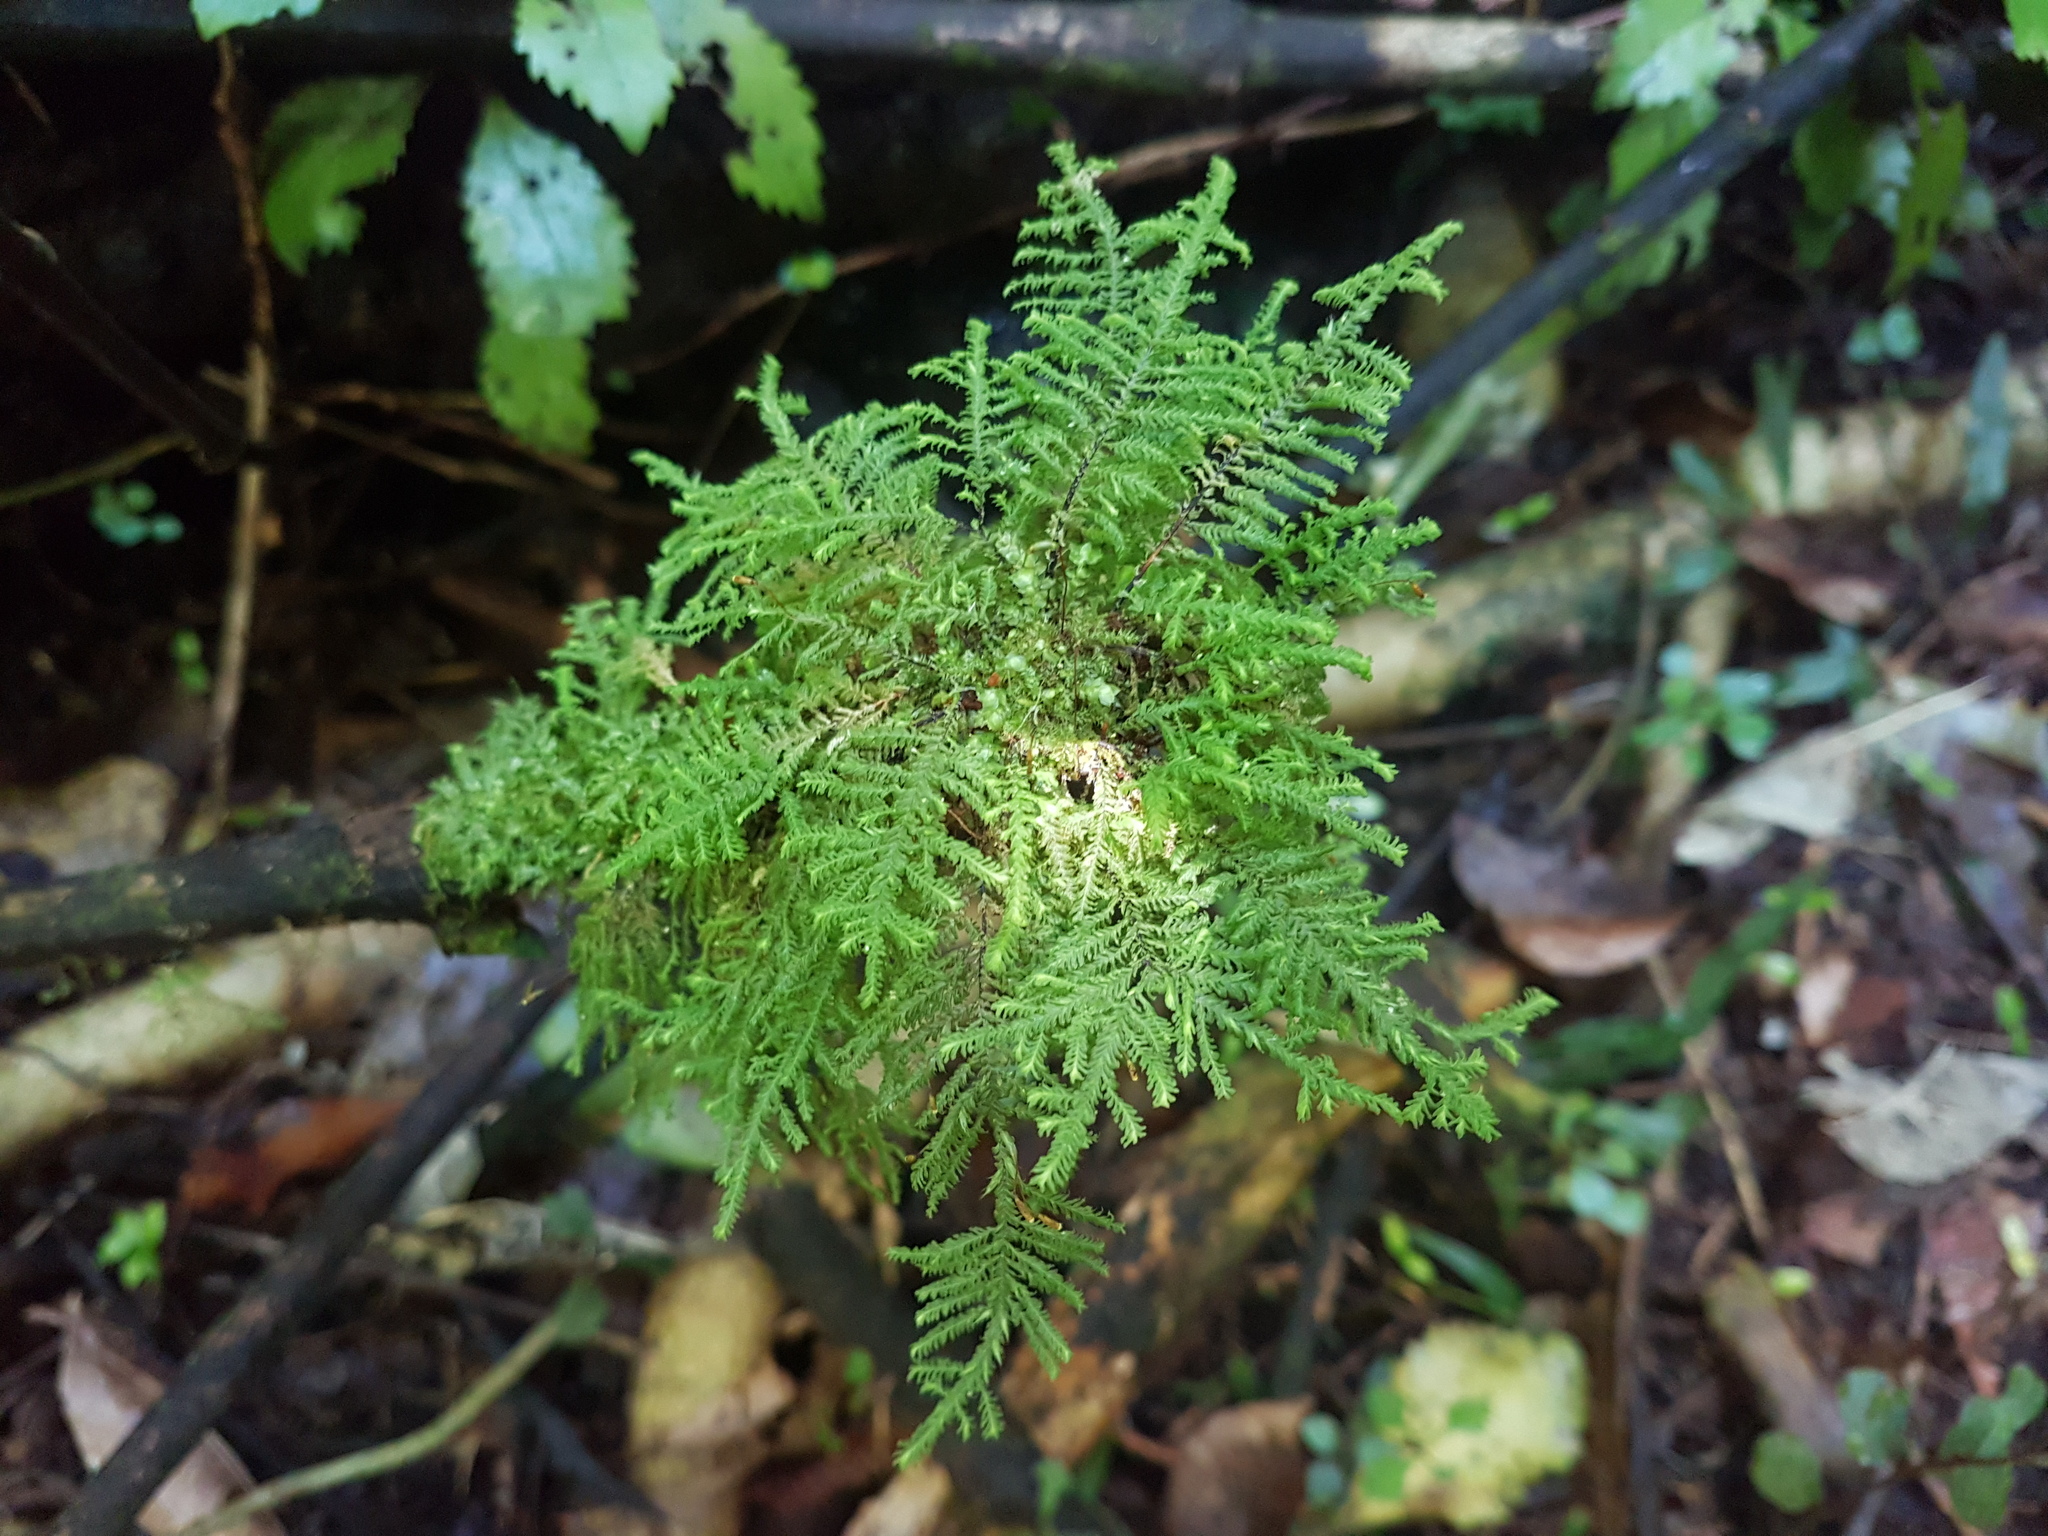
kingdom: Plantae
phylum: Bryophyta
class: Bryopsida
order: Hypopterygiales
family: Hypopterygiaceae
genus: Lopidium
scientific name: Lopidium concinnum
